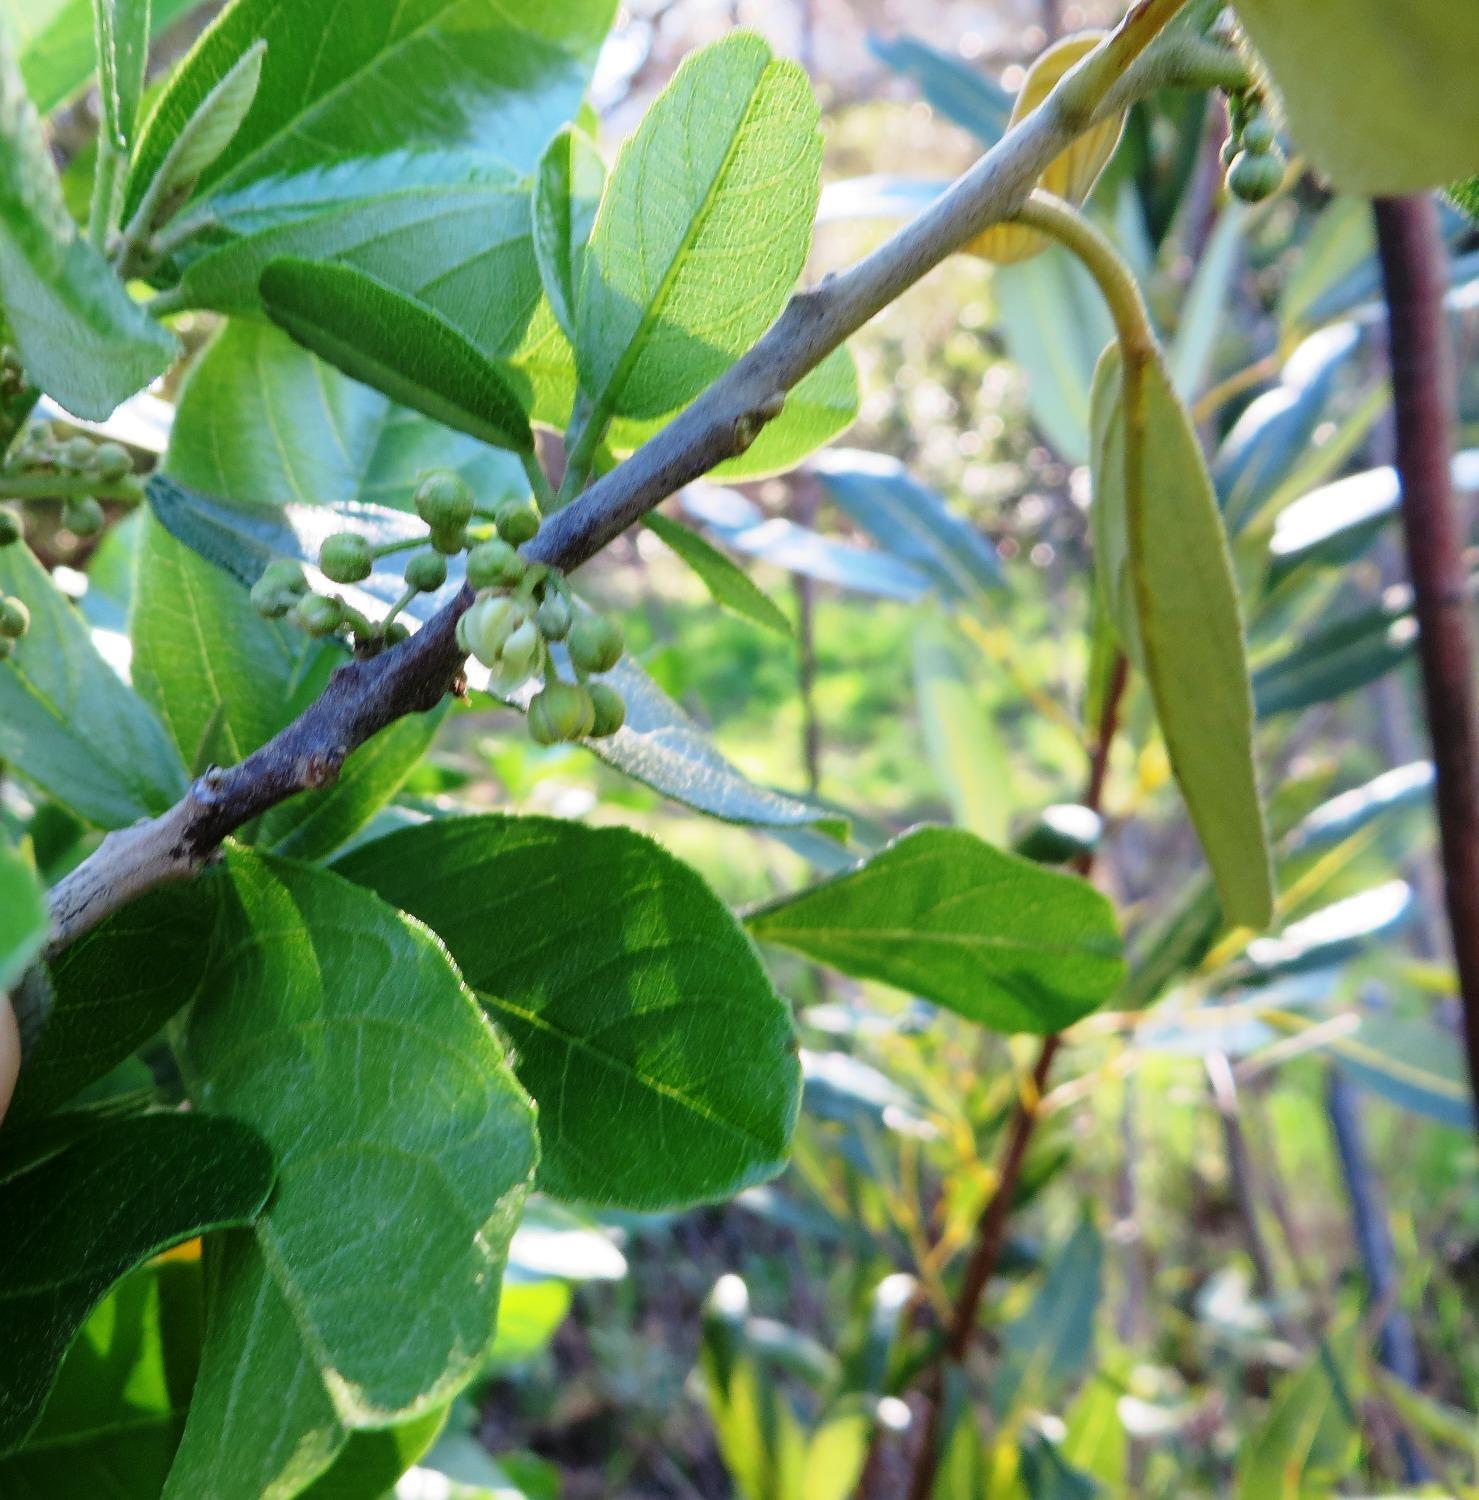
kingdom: Plantae
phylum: Tracheophyta
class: Magnoliopsida
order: Malpighiales
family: Achariaceae
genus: Kiggelaria
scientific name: Kiggelaria africana
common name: Wild peach
